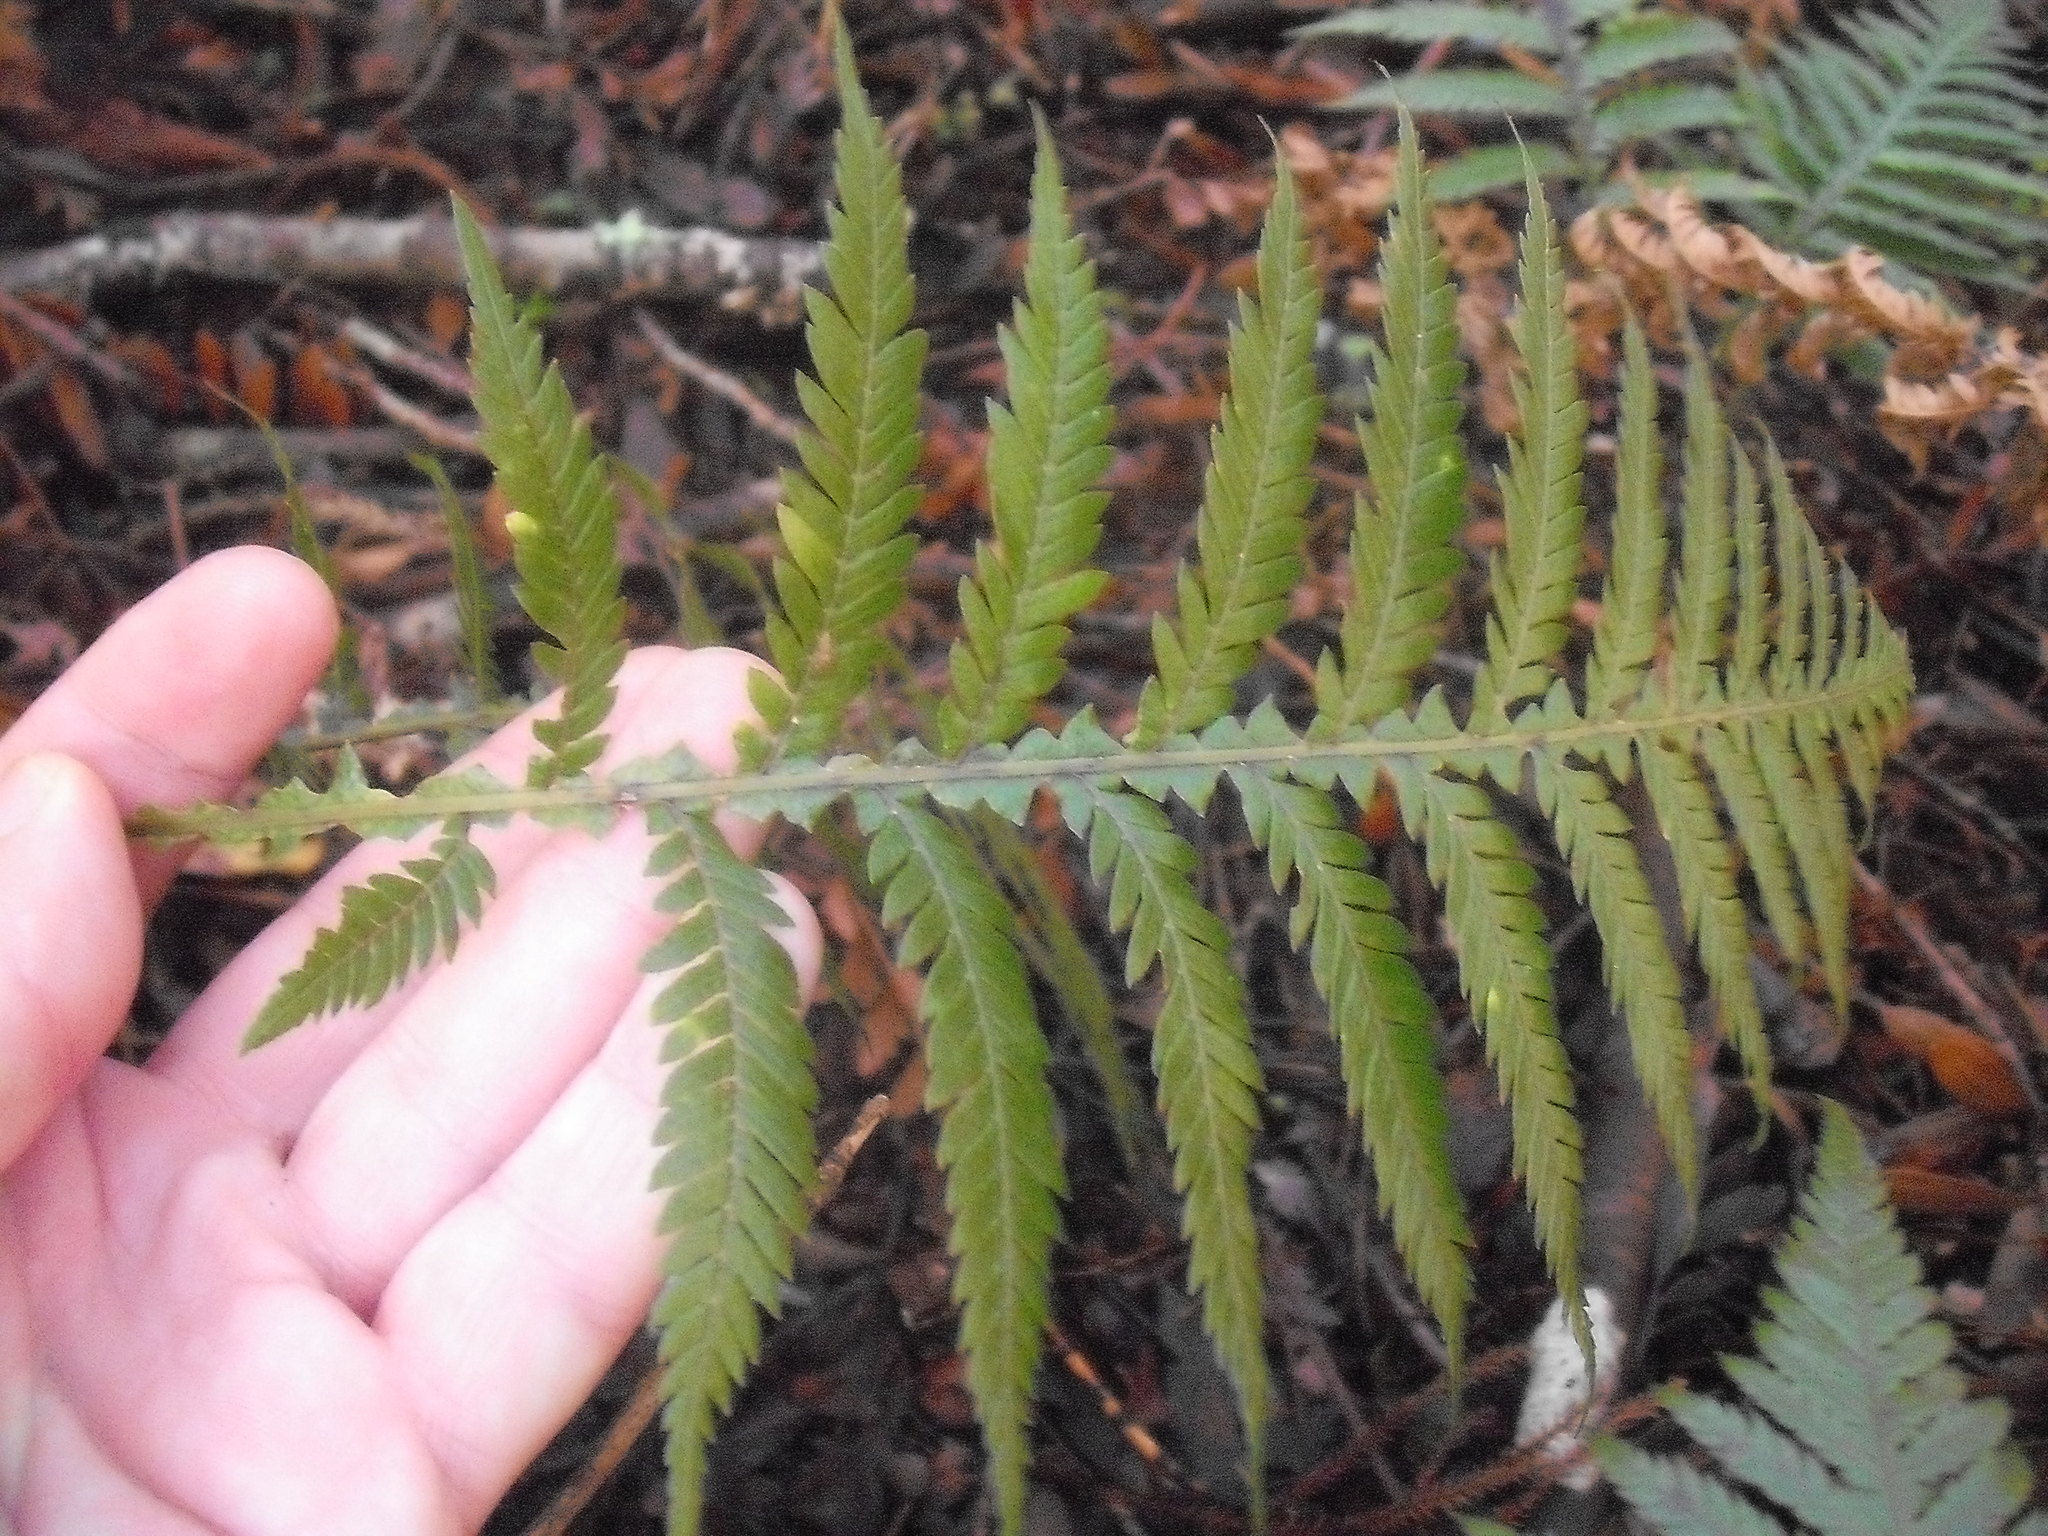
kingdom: Plantae
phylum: Tracheophyta
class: Polypodiopsida
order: Polypodiales
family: Blechnaceae
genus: Diploblechnum
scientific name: Diploblechnum fraseri
